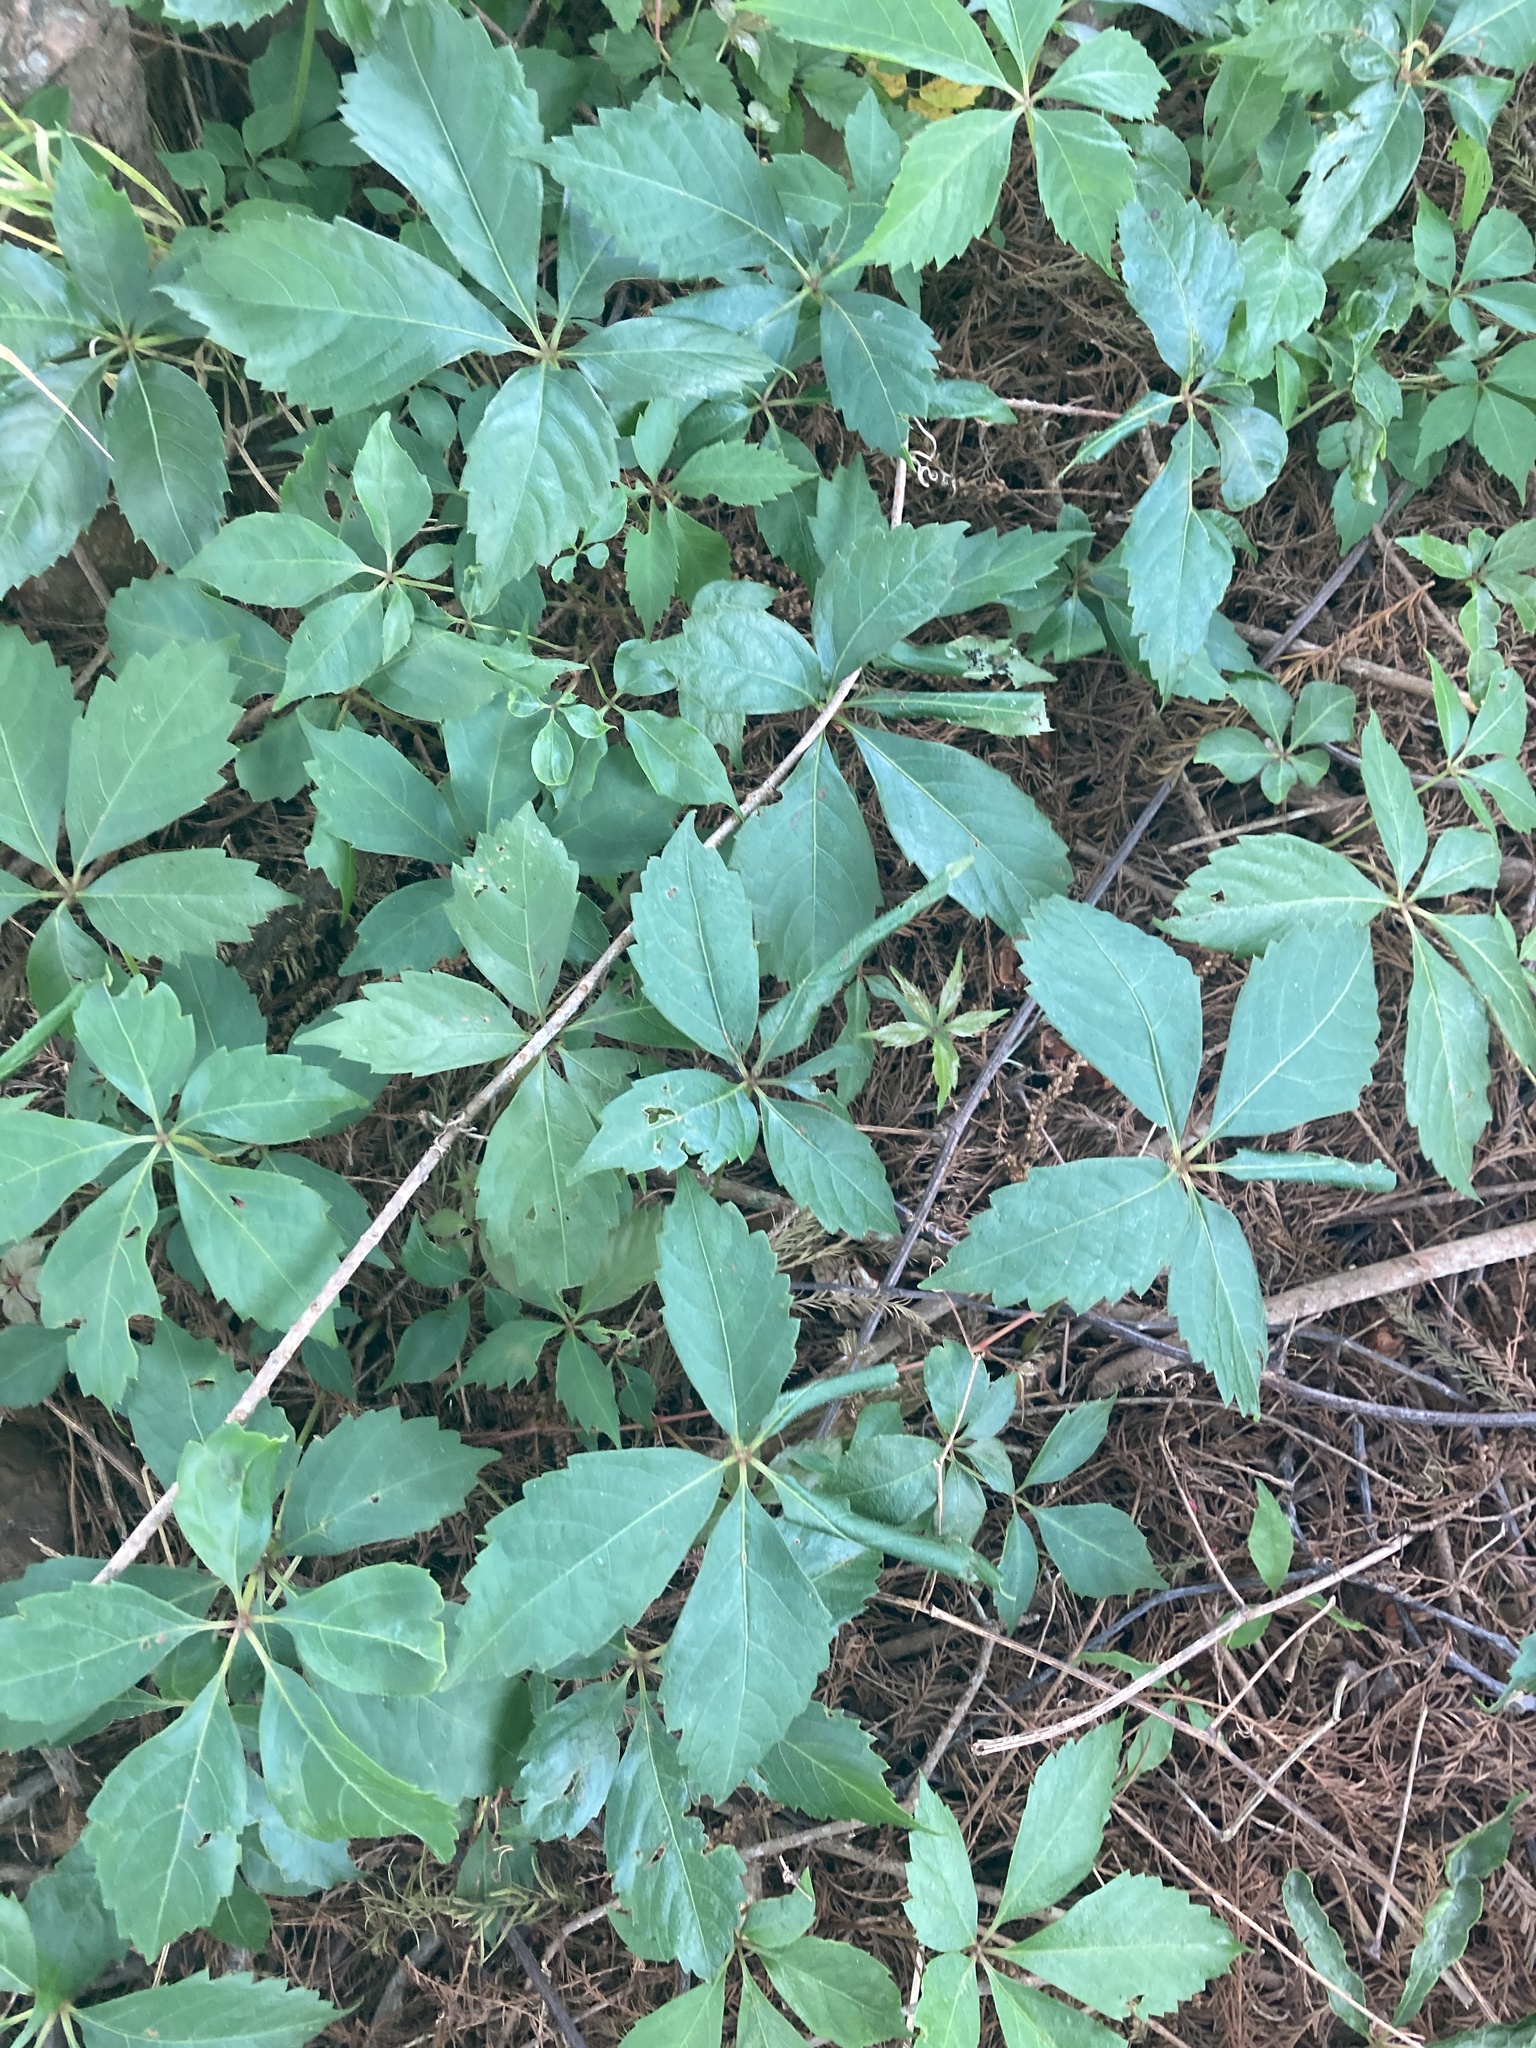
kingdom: Plantae
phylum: Tracheophyta
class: Magnoliopsida
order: Vitales
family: Vitaceae
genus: Parthenocissus
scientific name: Parthenocissus quinquefolia
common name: Virginia-creeper
